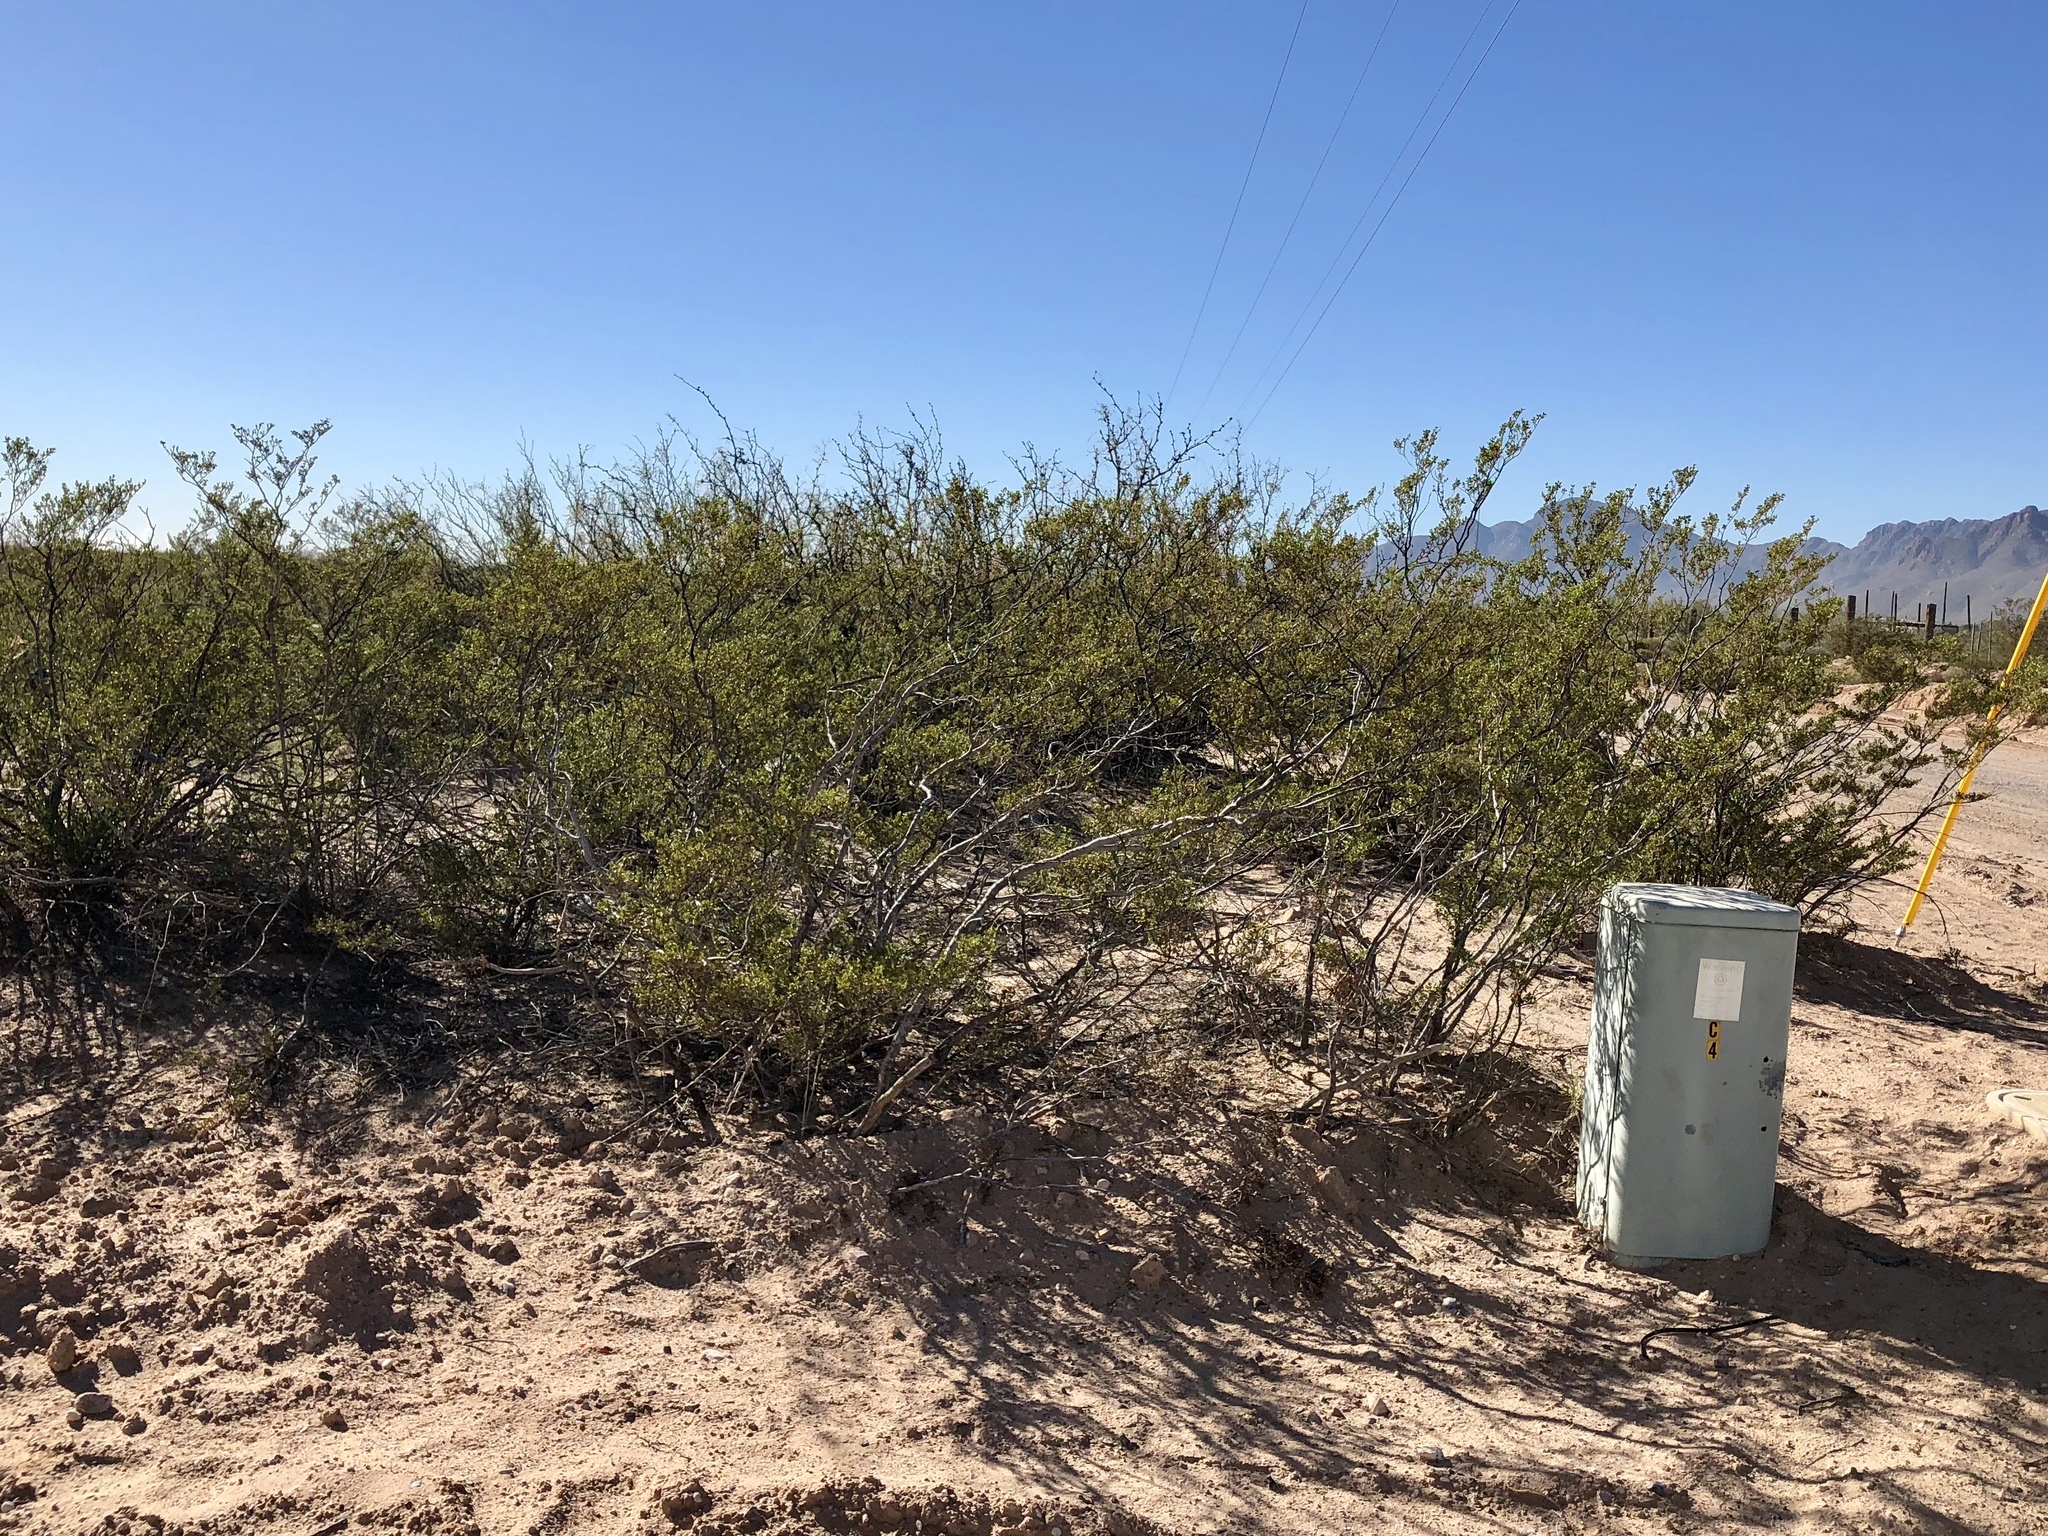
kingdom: Plantae
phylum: Tracheophyta
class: Magnoliopsida
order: Zygophyllales
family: Zygophyllaceae
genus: Larrea
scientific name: Larrea tridentata
